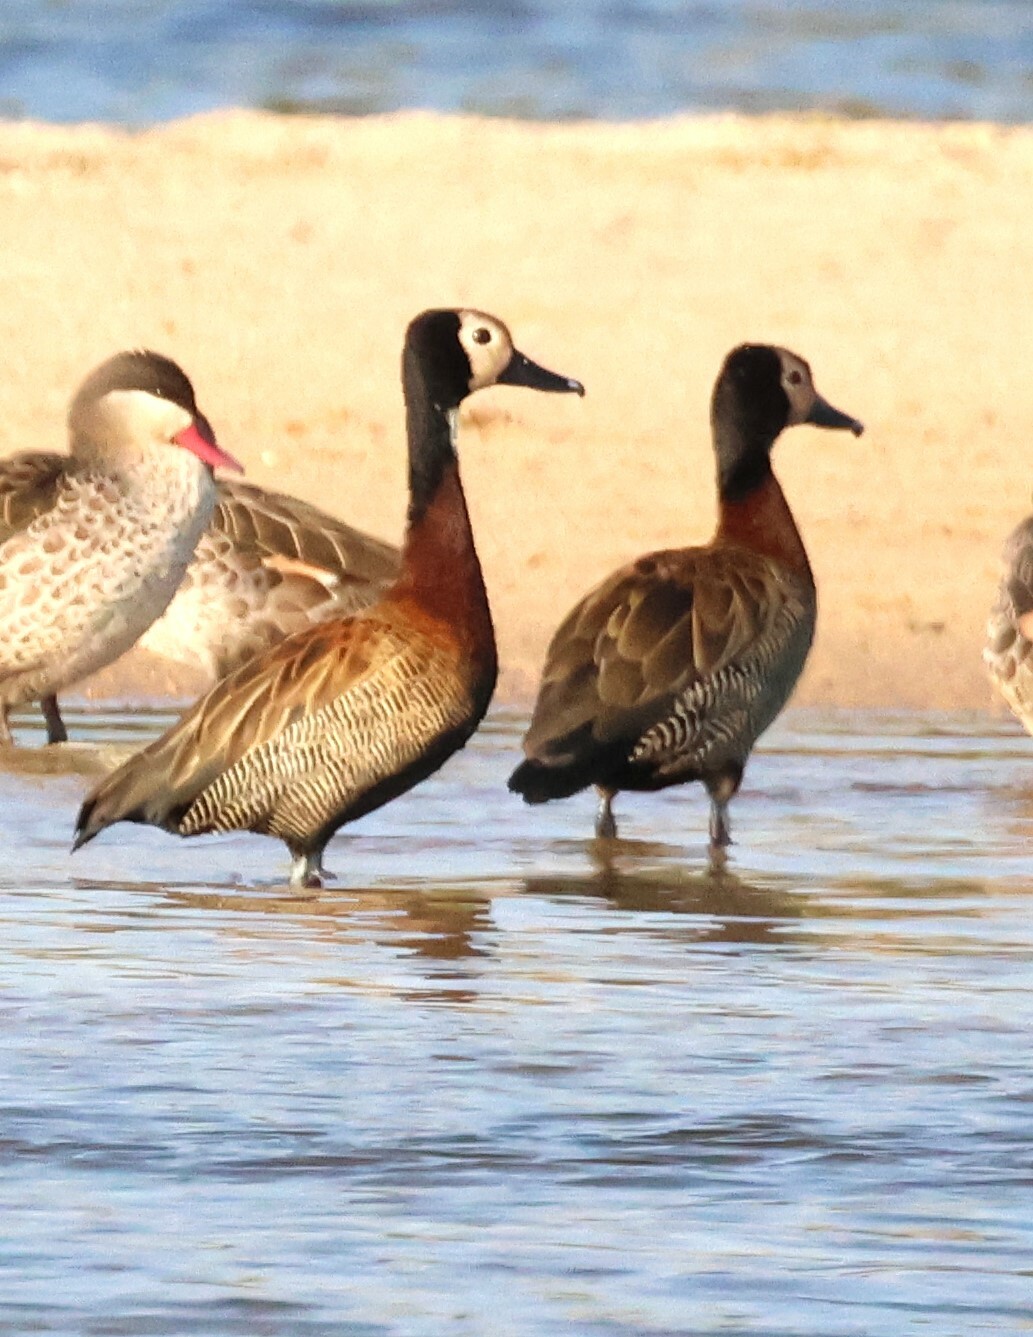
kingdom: Animalia
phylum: Chordata
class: Aves
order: Anseriformes
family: Anatidae
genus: Dendrocygna
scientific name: Dendrocygna viduata
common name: White-faced whistling duck
